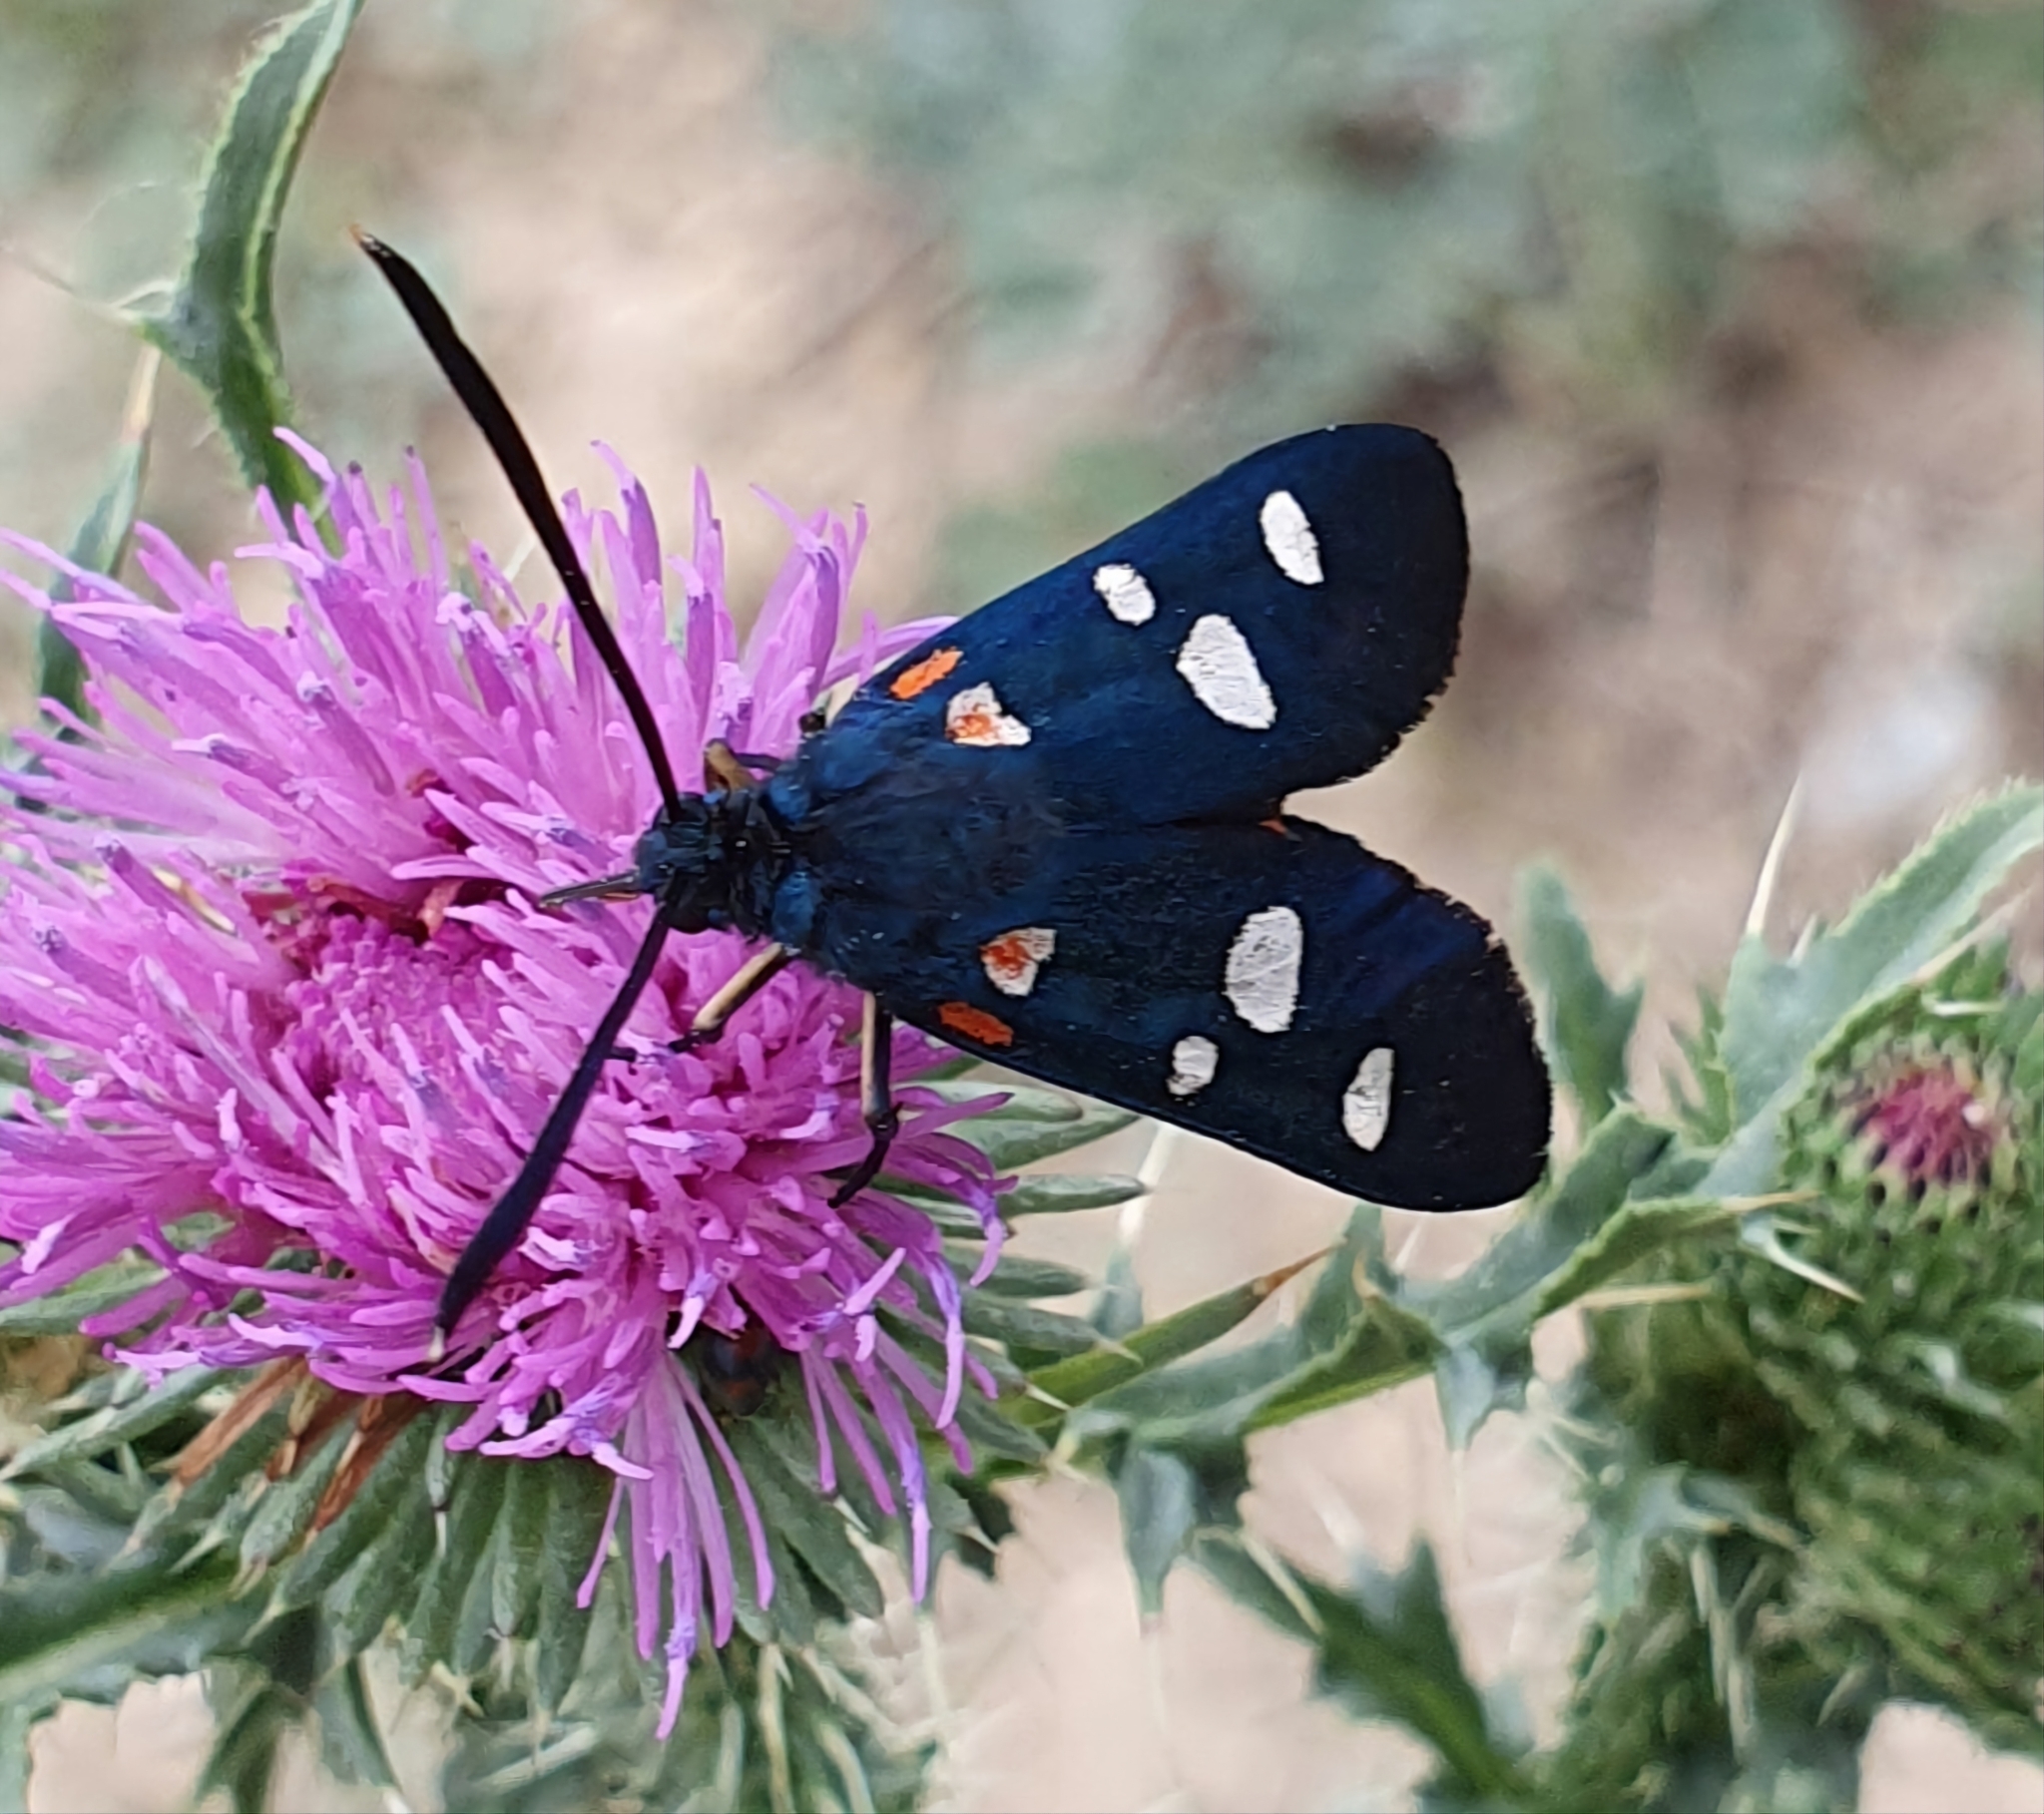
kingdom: Animalia
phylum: Arthropoda
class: Insecta
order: Lepidoptera
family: Zygaenidae
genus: Zygaena
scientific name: Zygaena ephialtes
